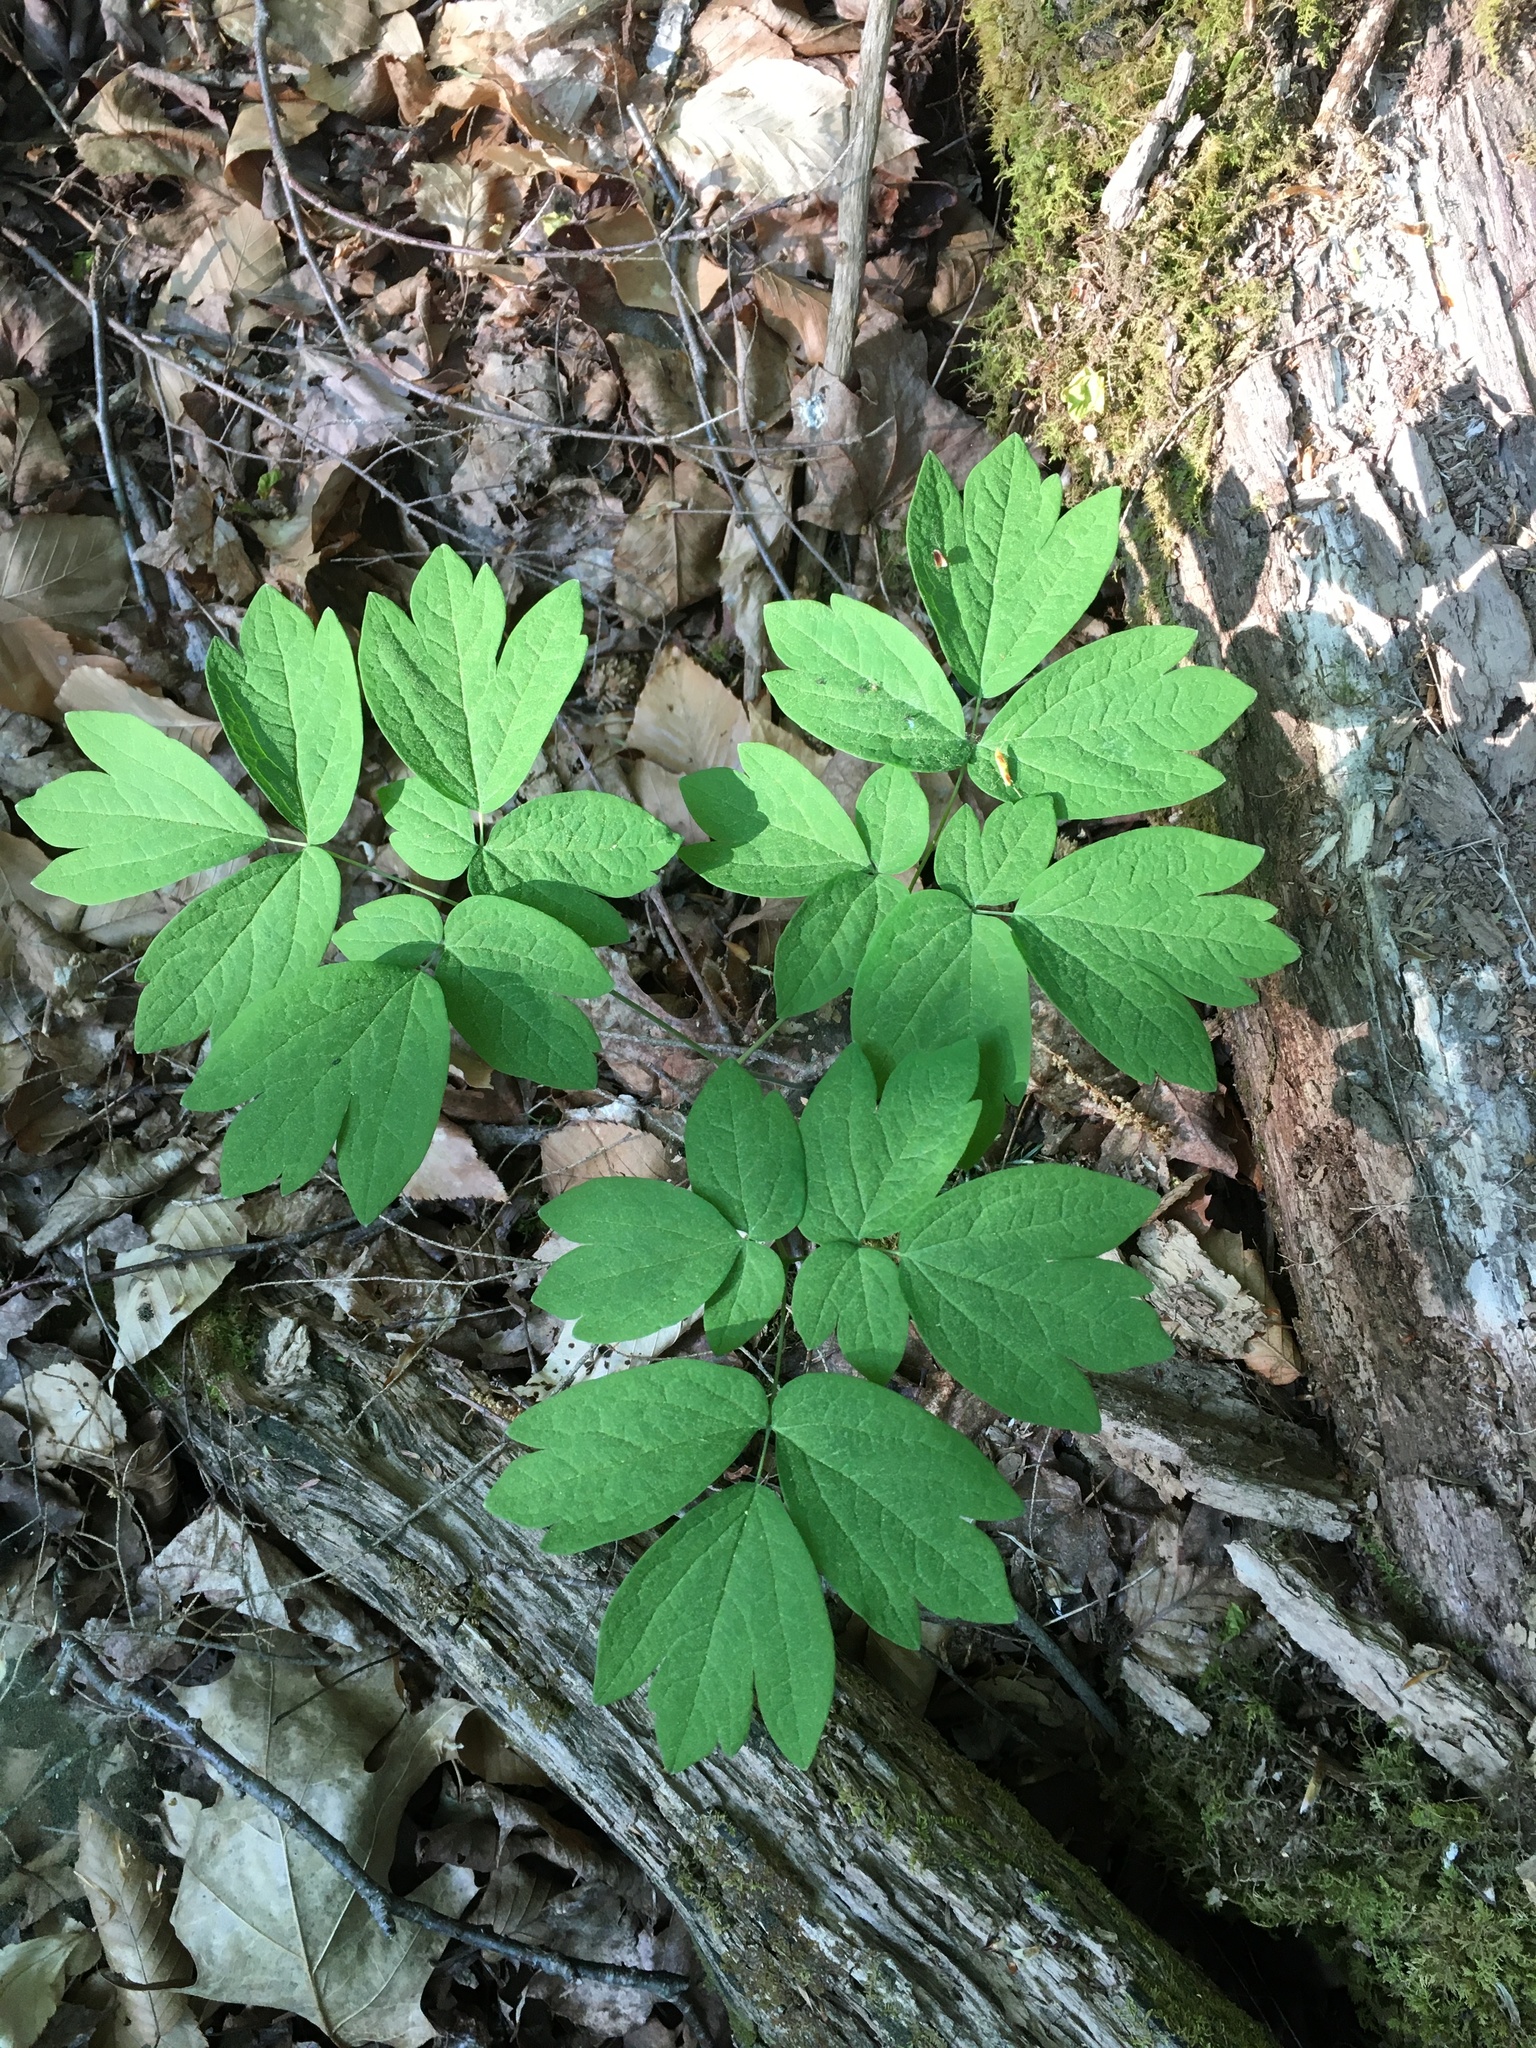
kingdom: Plantae
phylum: Tracheophyta
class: Magnoliopsida
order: Ranunculales
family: Berberidaceae
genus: Caulophyllum
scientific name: Caulophyllum thalictroides
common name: Blue cohosh
